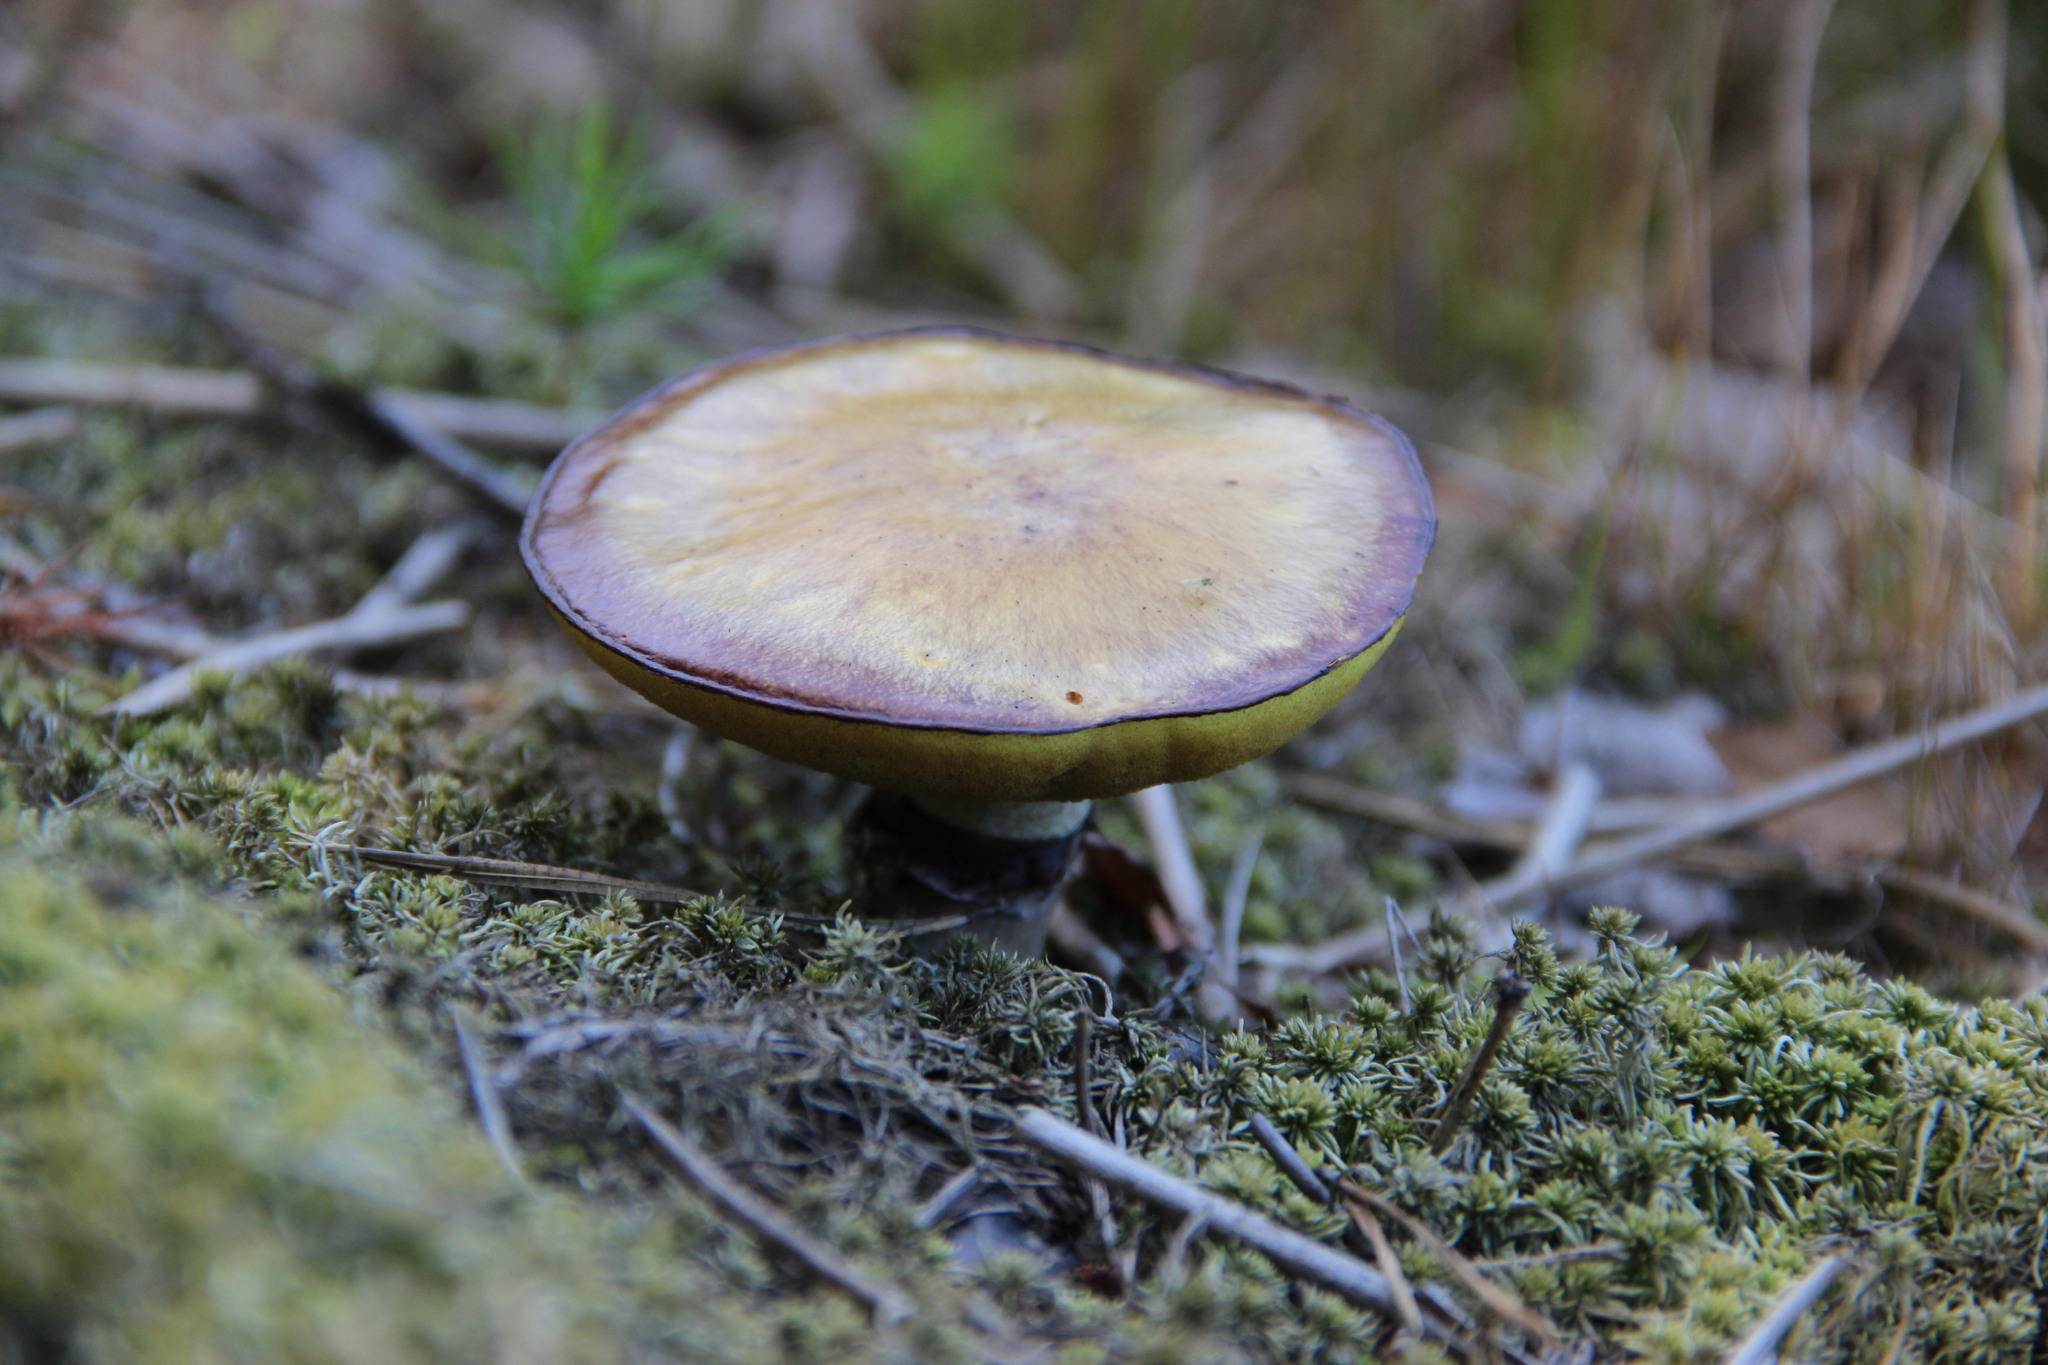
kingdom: Fungi
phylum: Basidiomycota
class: Agaricomycetes
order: Boletales
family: Suillaceae
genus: Suillus
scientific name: Suillus luteus
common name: Slippery jack
